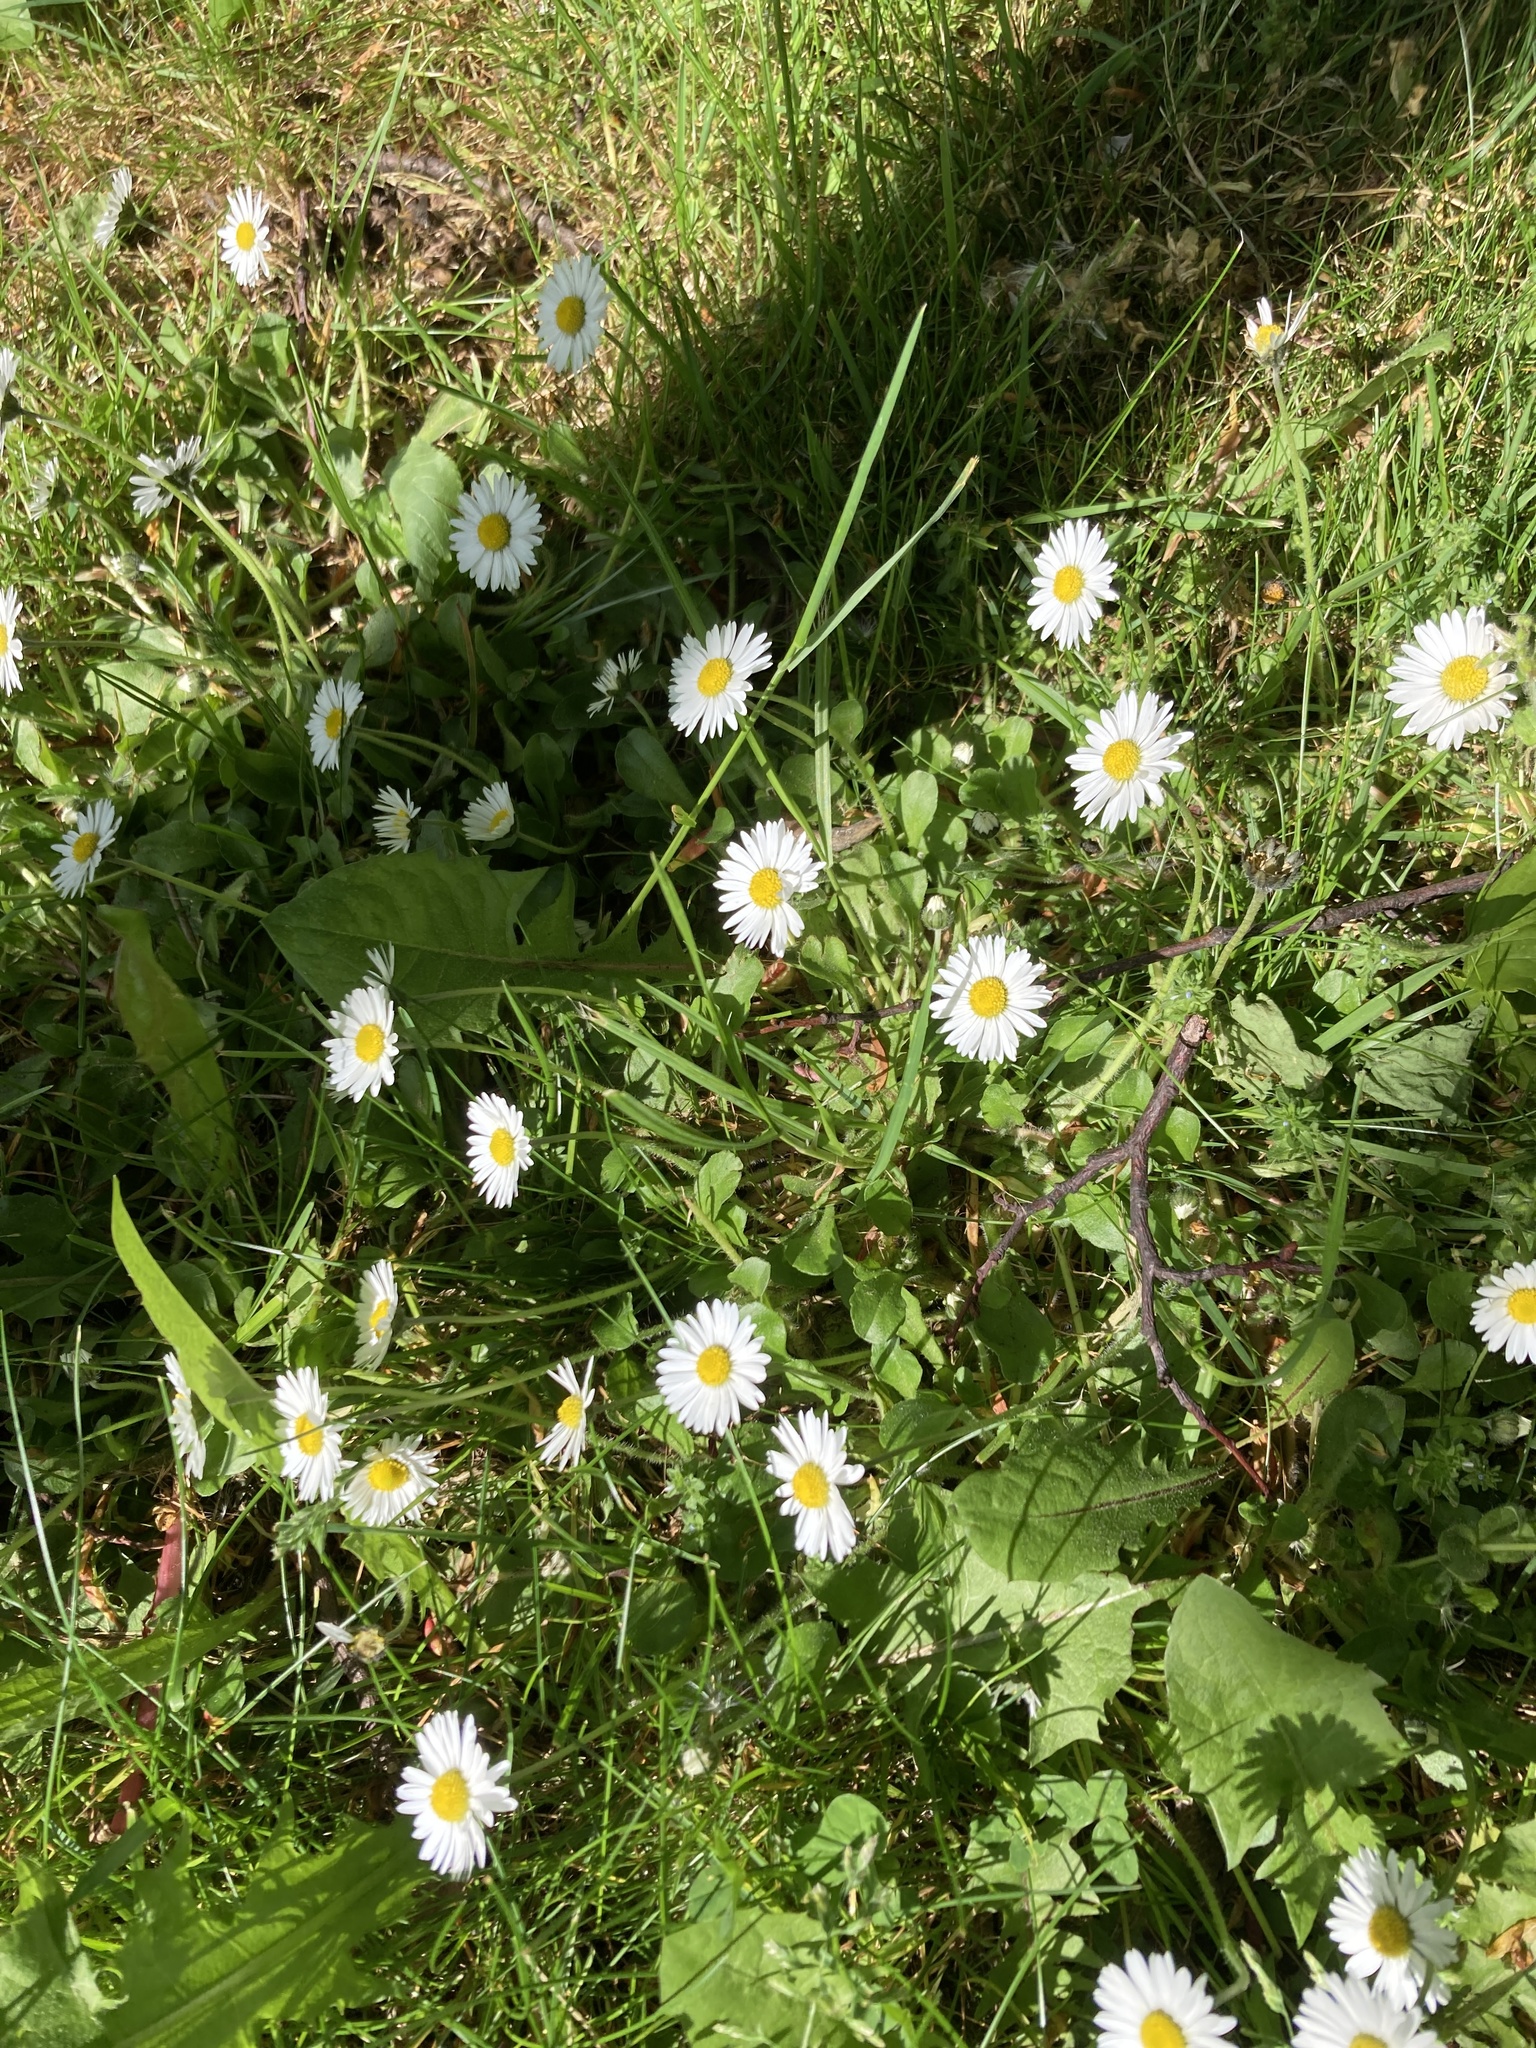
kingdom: Plantae
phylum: Tracheophyta
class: Magnoliopsida
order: Asterales
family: Asteraceae
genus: Bellis
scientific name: Bellis perennis
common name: Lawndaisy
